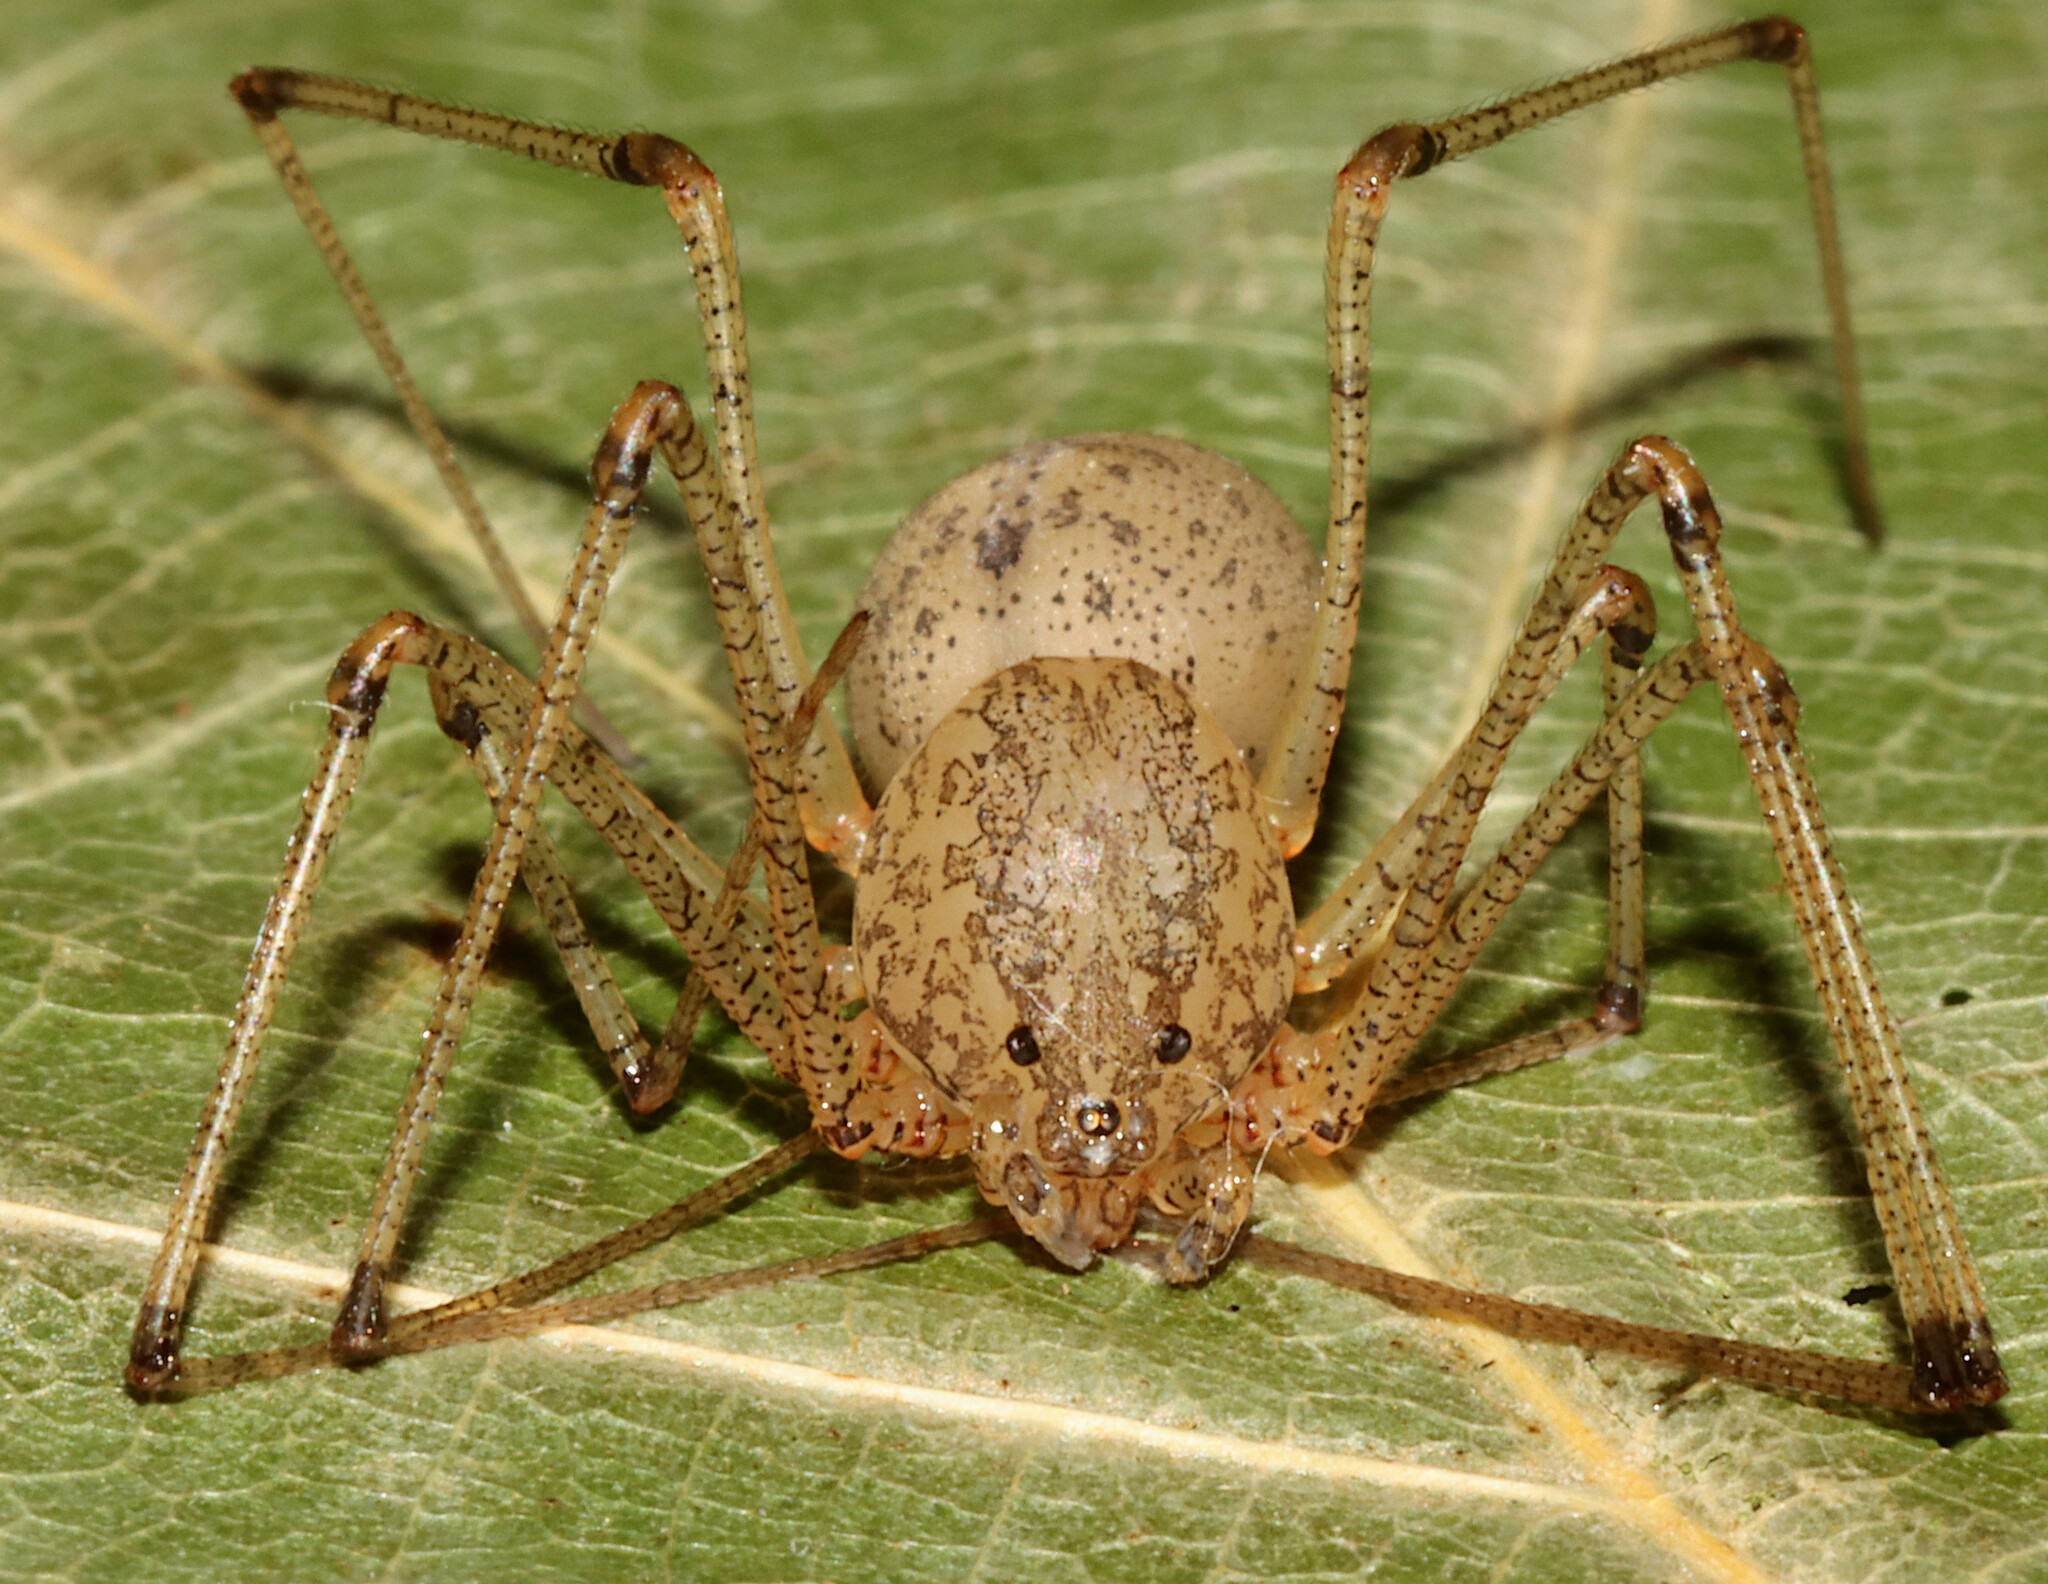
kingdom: Animalia
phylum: Arthropoda
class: Arachnida
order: Araneae
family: Scytodidae
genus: Scytodes
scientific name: Scytodes atlacoya
